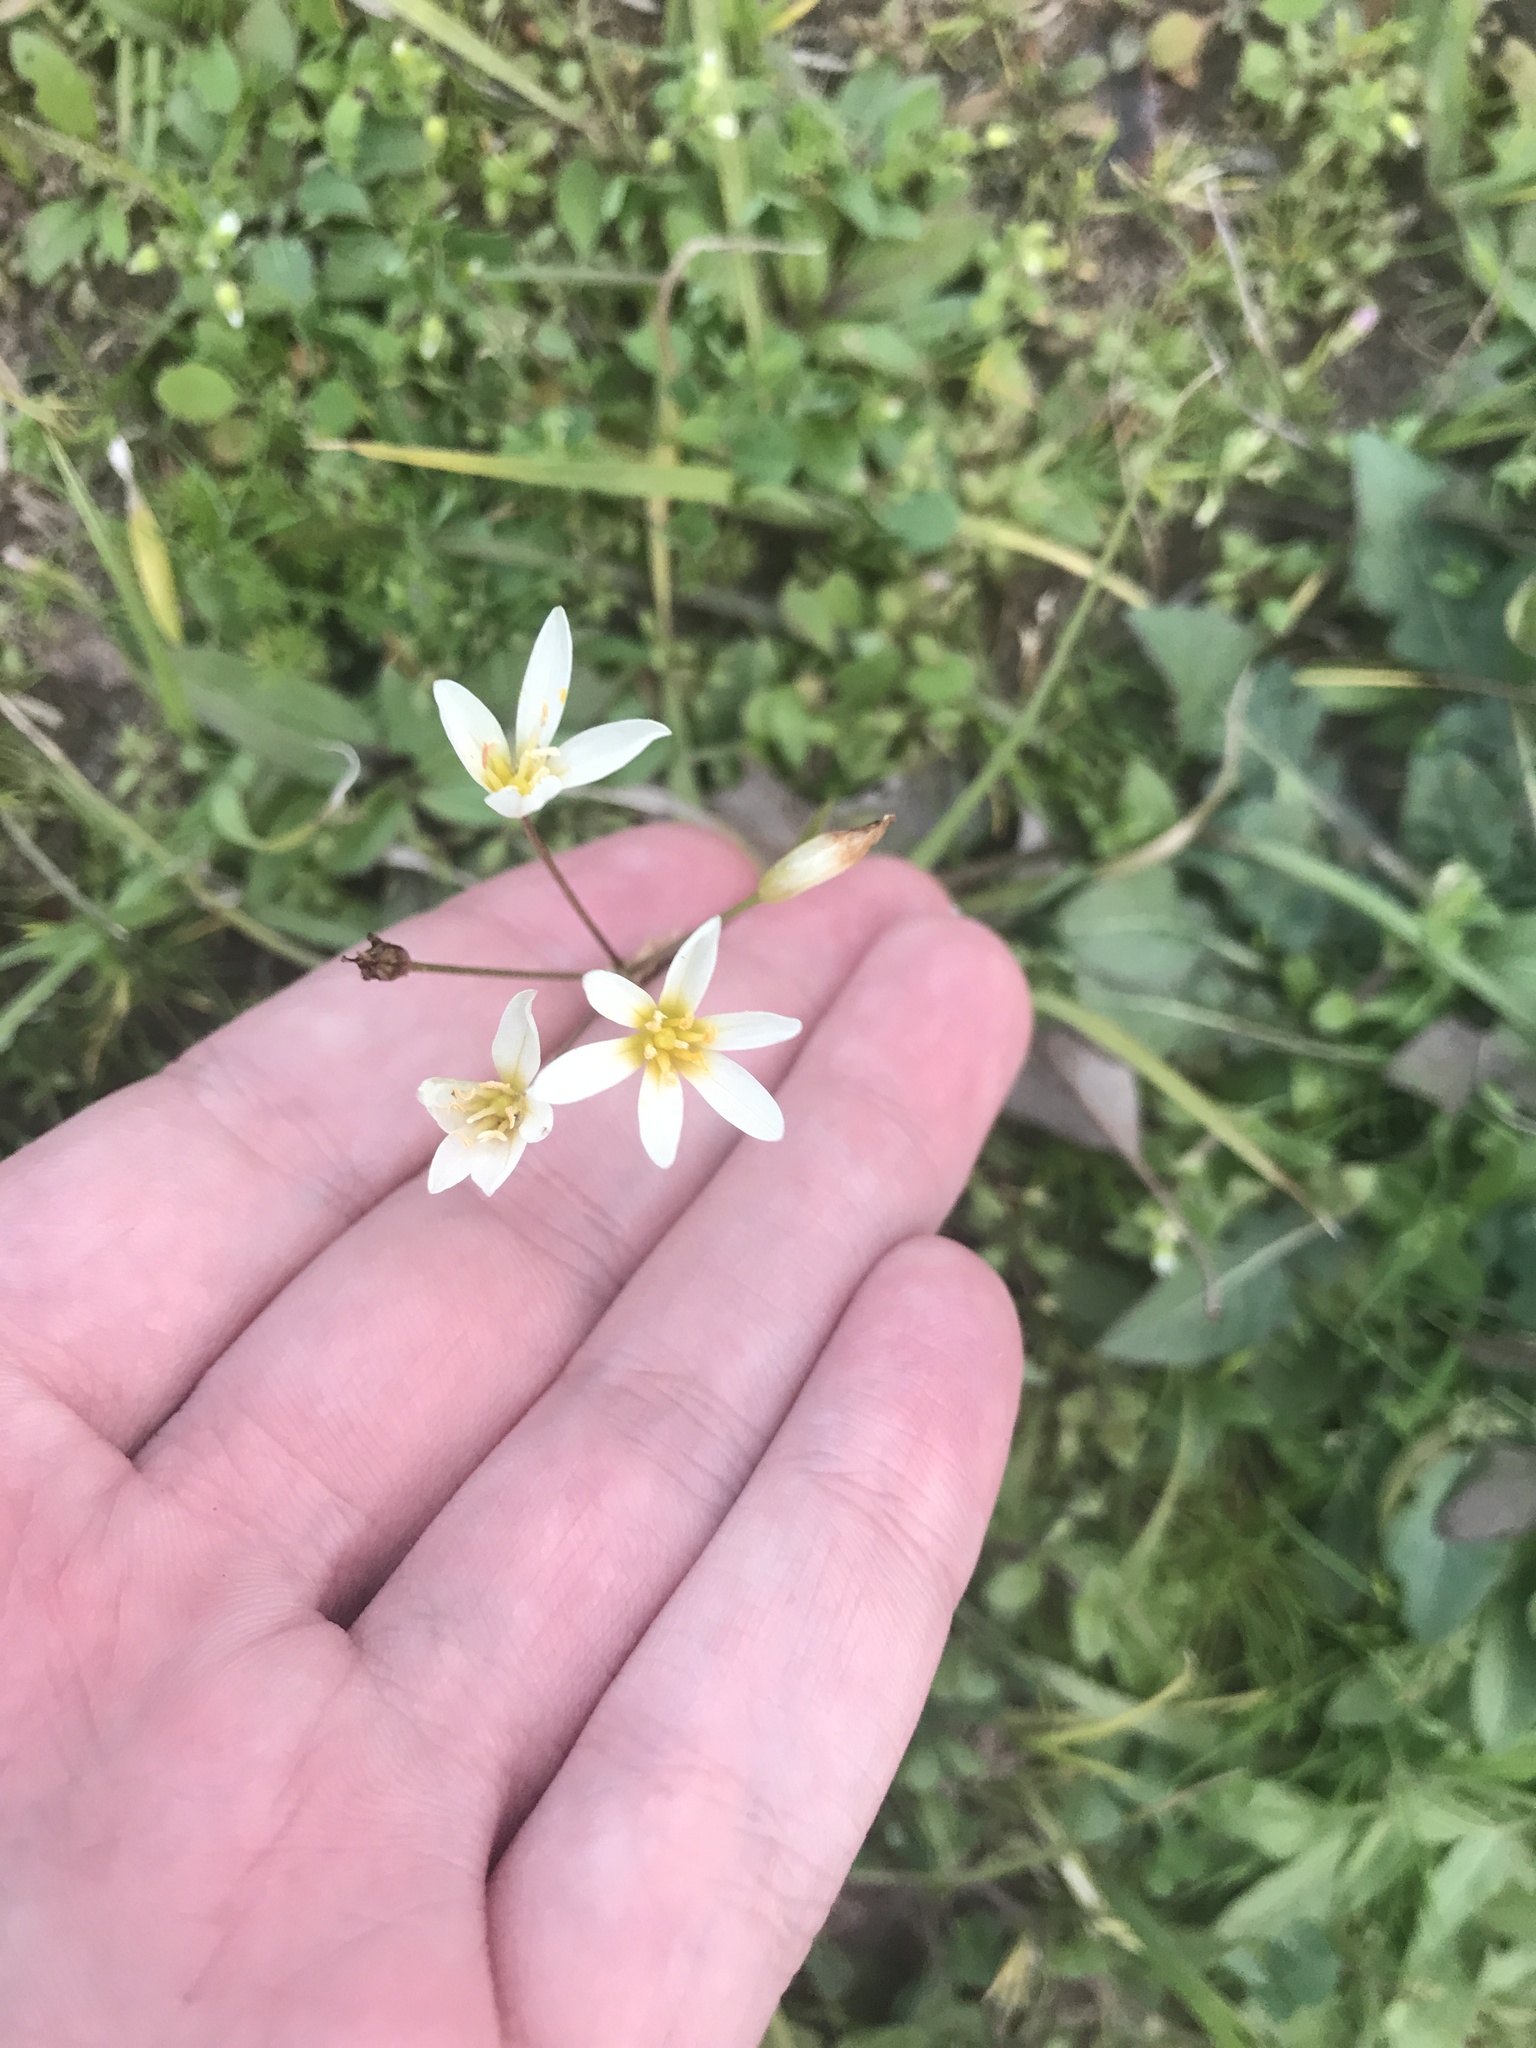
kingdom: Plantae
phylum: Tracheophyta
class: Liliopsida
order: Asparagales
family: Amaryllidaceae
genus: Nothoscordum
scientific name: Nothoscordum bivalve
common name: Crow-poison
